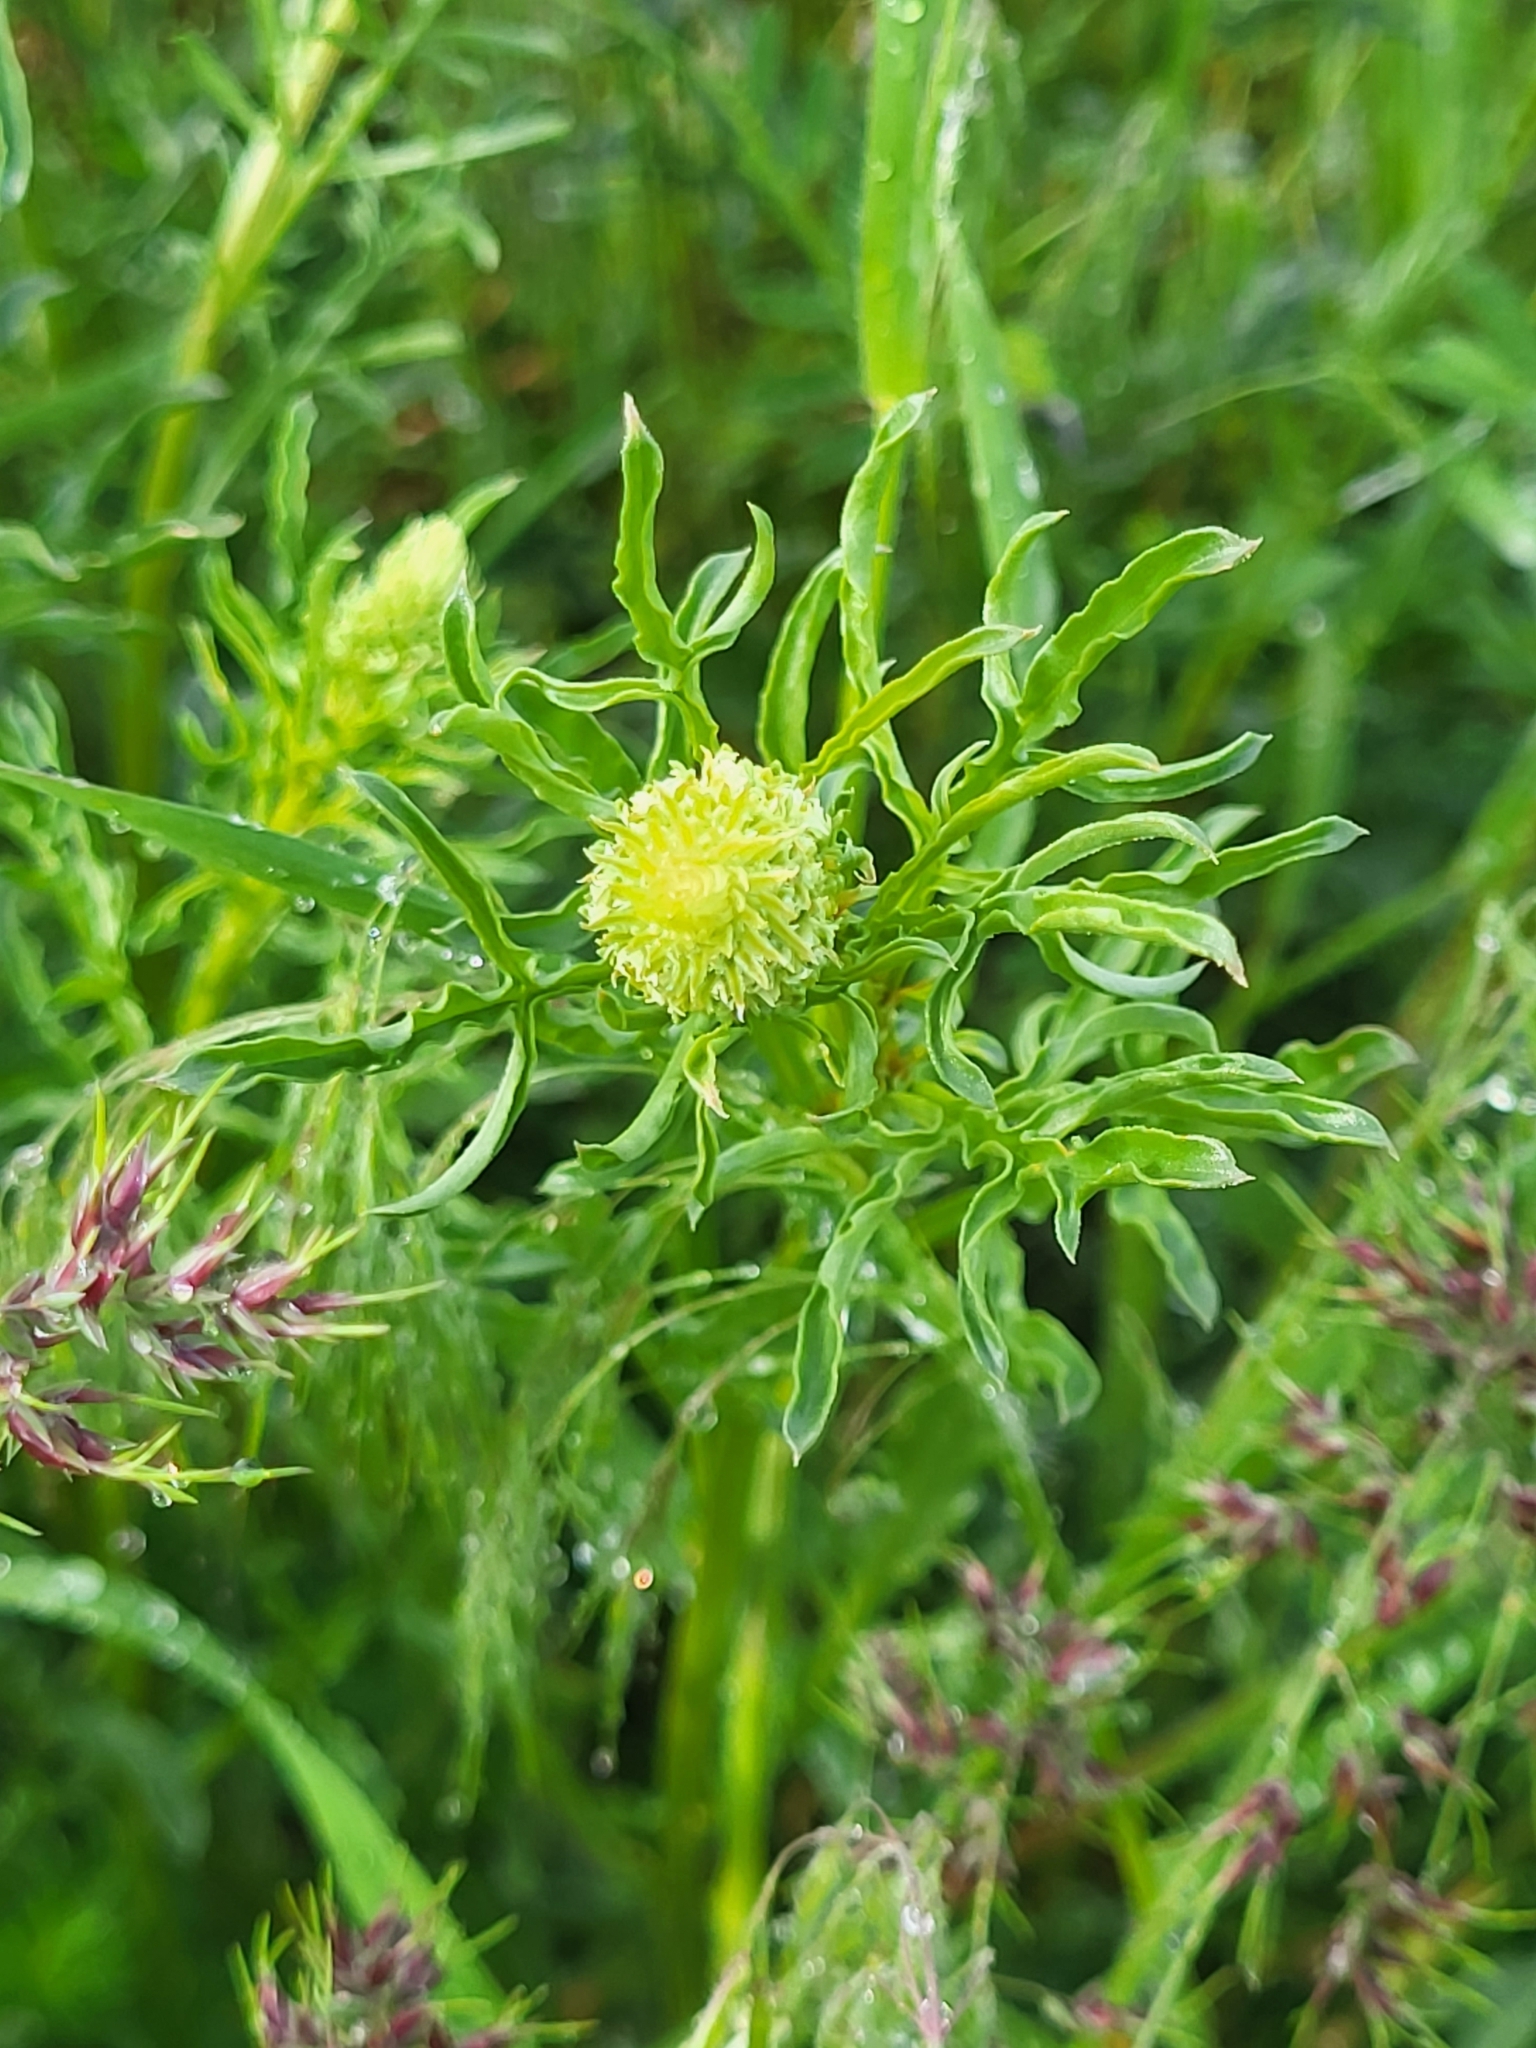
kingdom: Plantae
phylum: Tracheophyta
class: Magnoliopsida
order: Brassicales
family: Resedaceae
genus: Reseda
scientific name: Reseda lutea
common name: Wild mignonette
